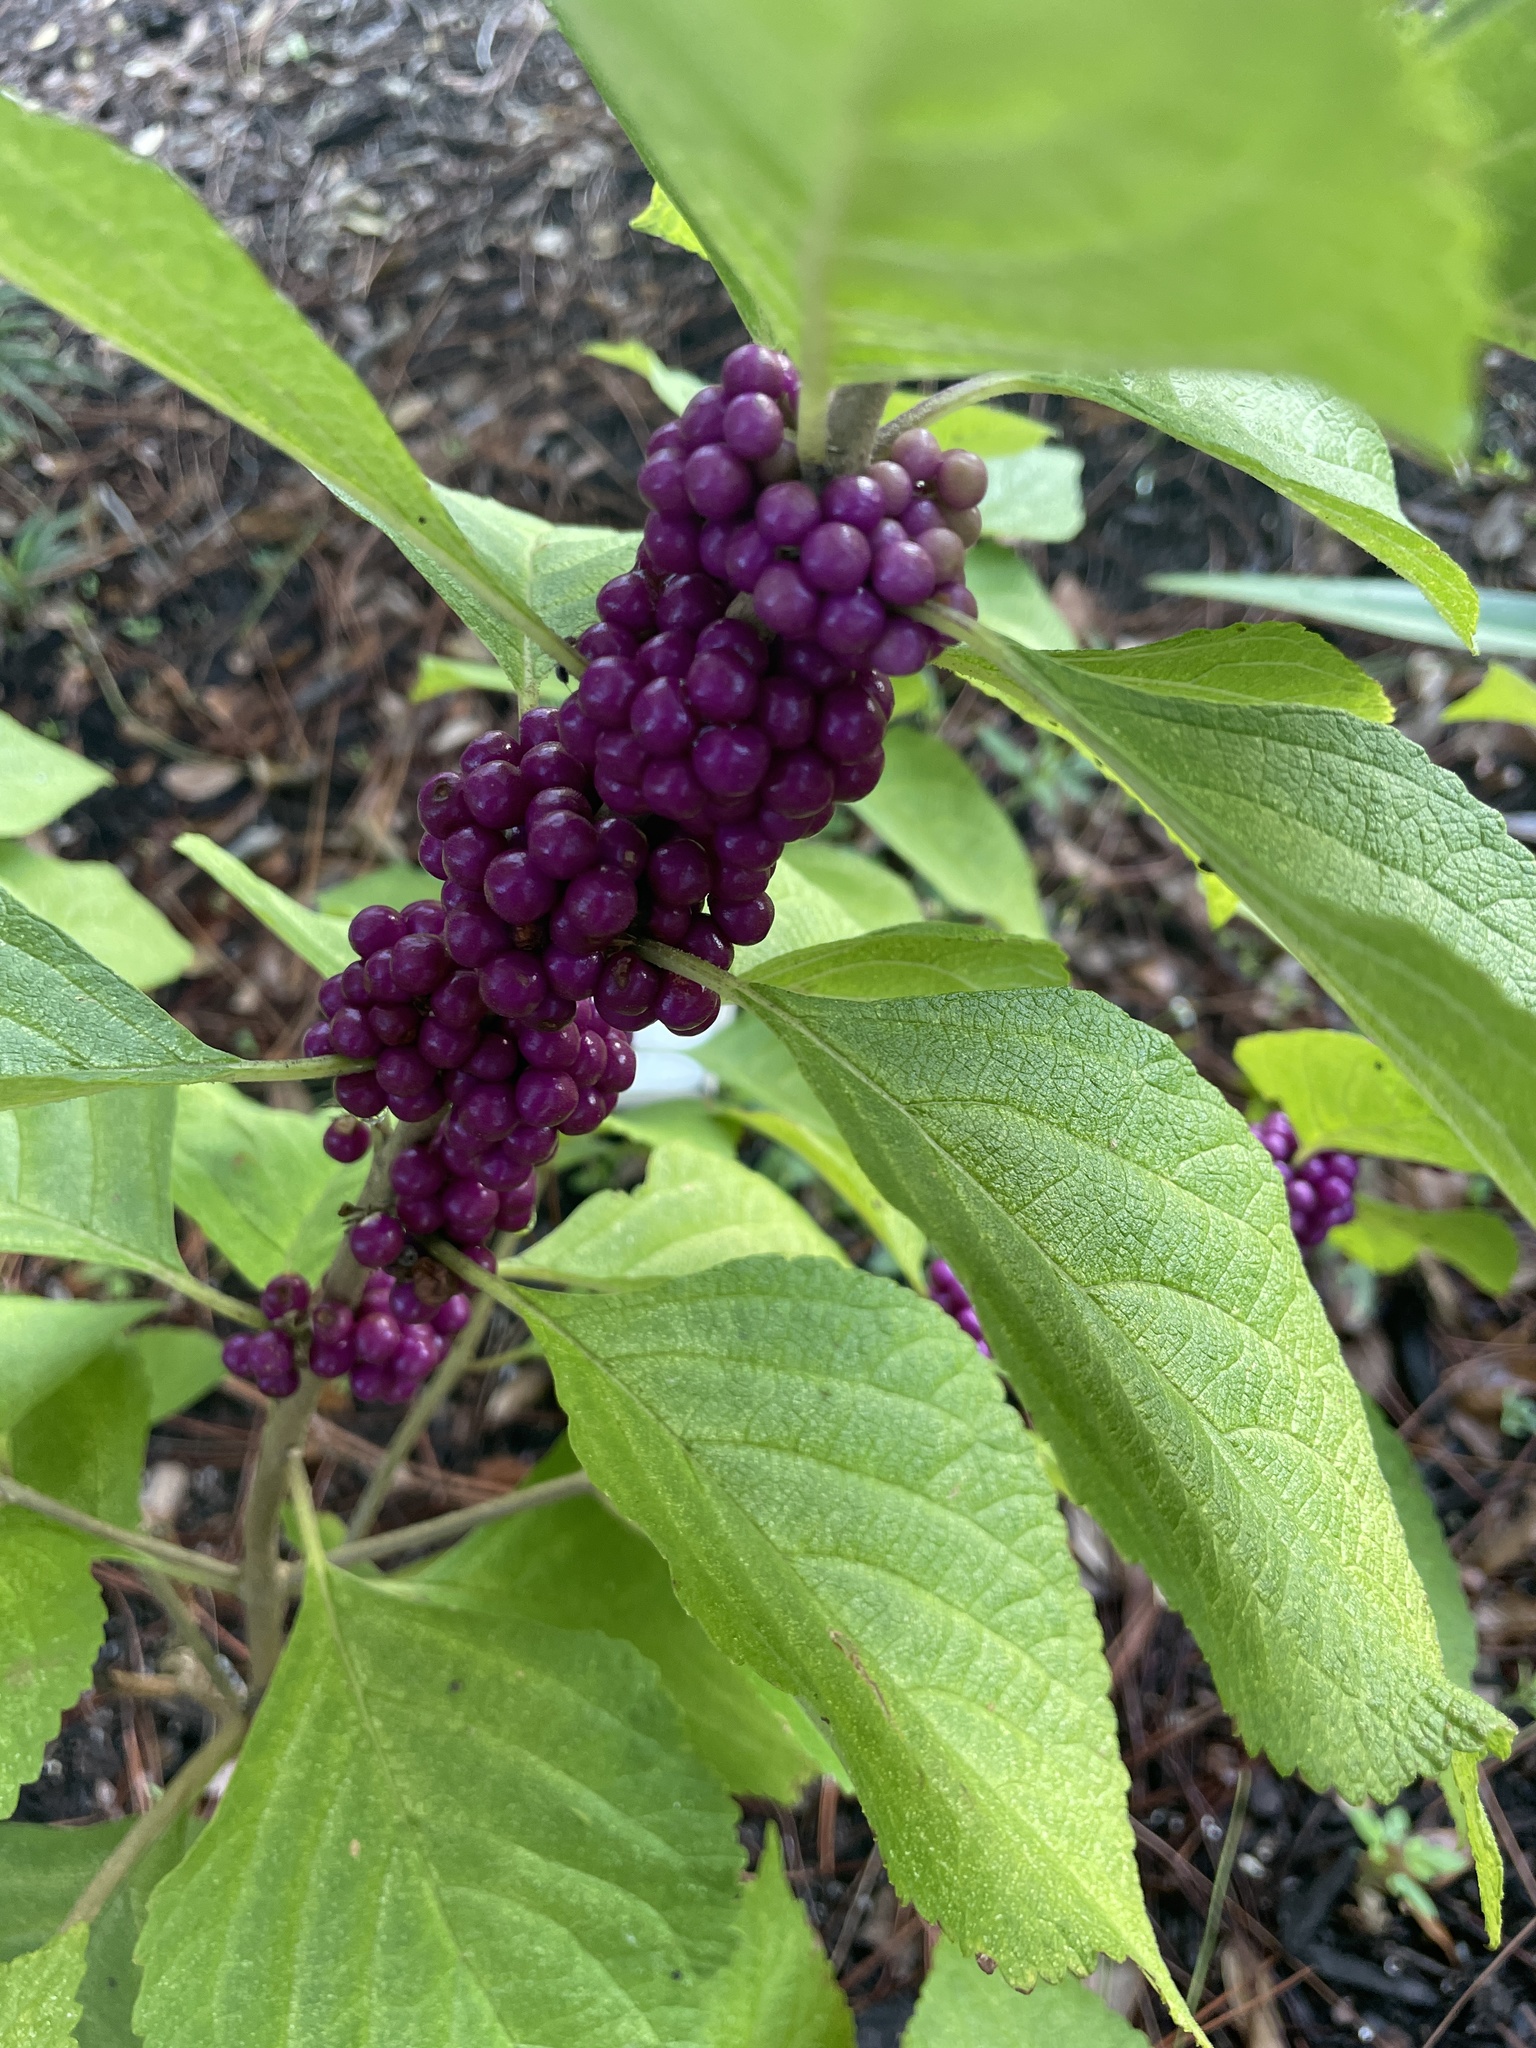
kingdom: Plantae
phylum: Tracheophyta
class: Magnoliopsida
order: Lamiales
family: Lamiaceae
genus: Callicarpa
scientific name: Callicarpa americana
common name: American beautyberry
